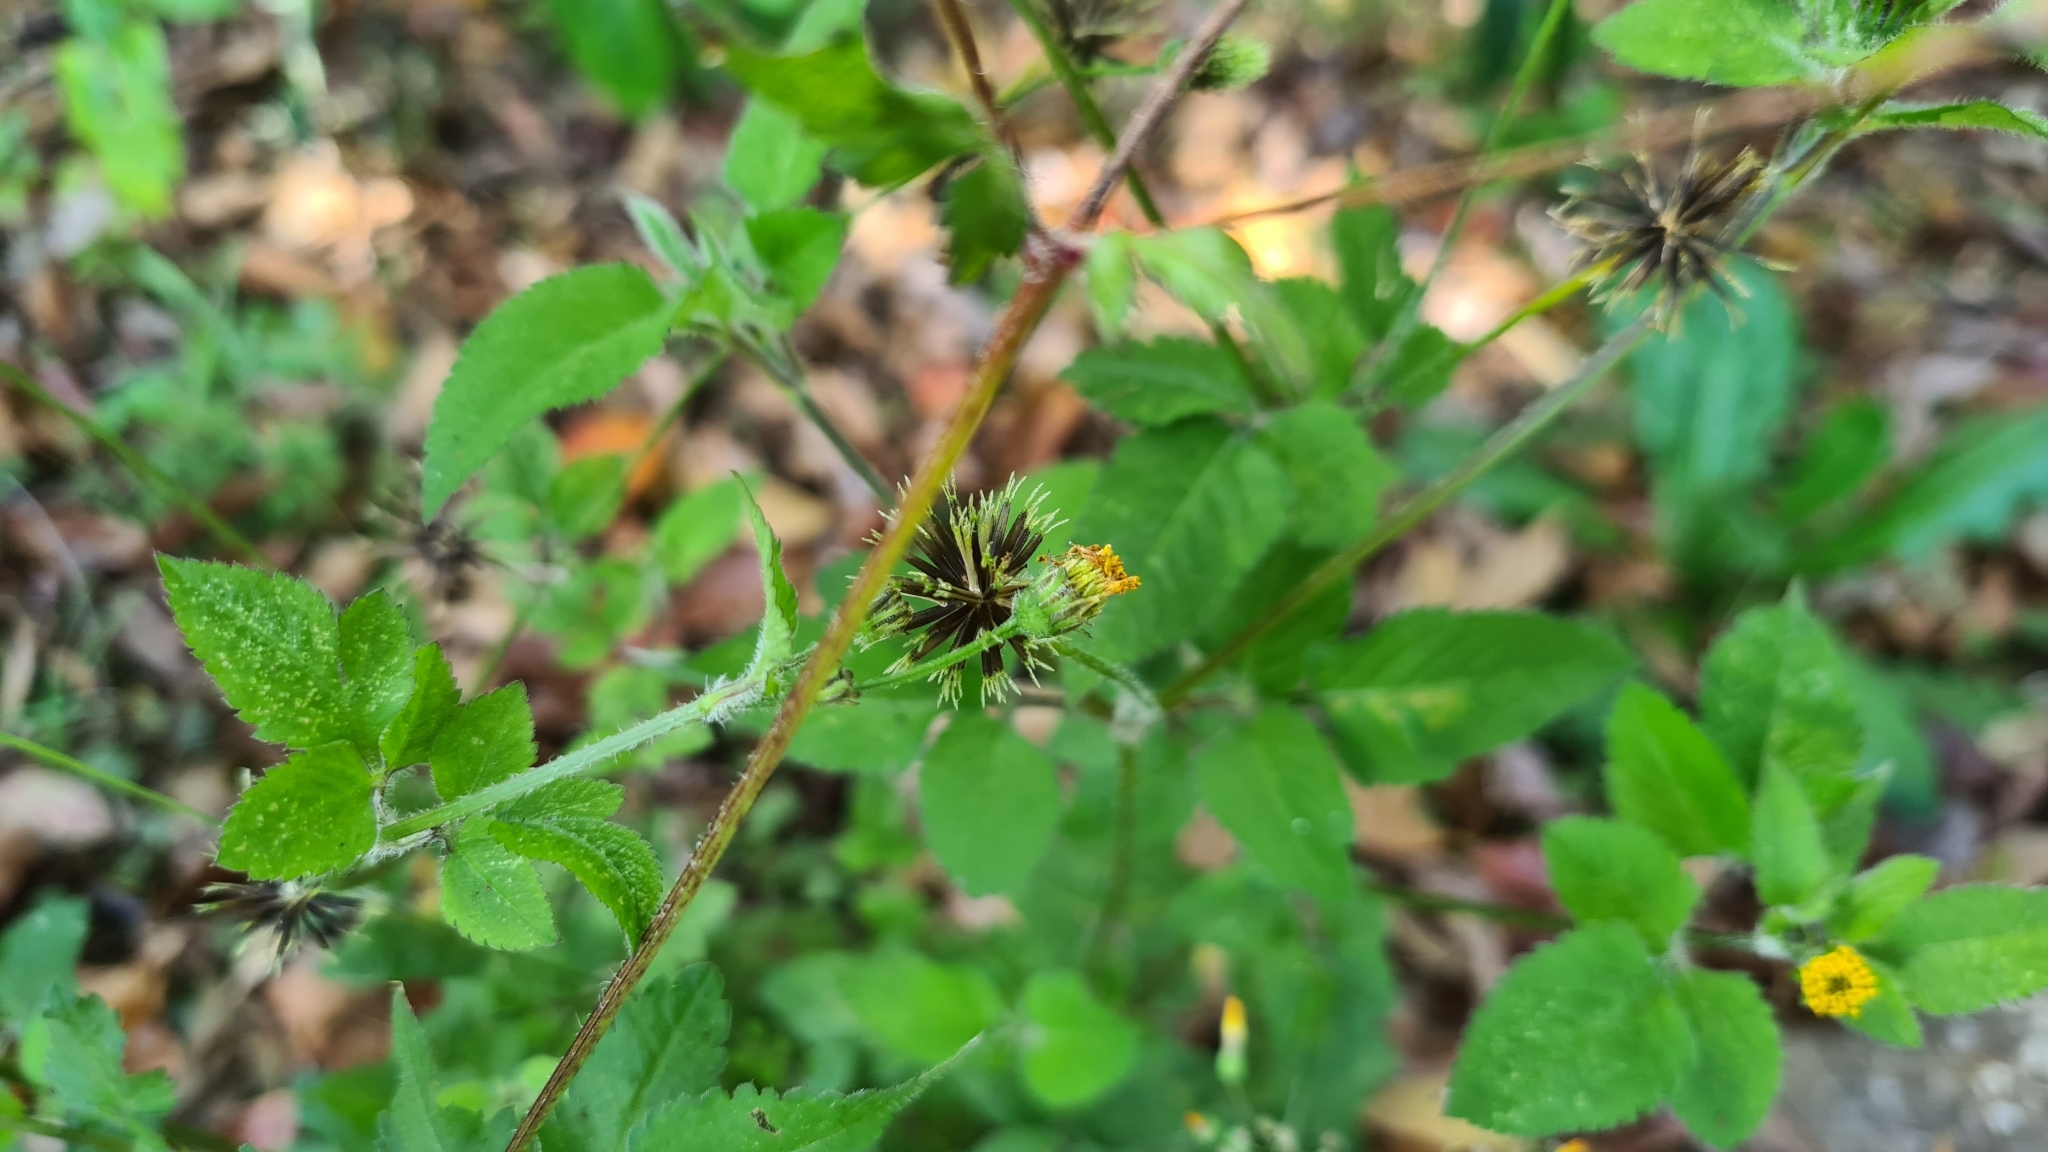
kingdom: Plantae
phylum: Tracheophyta
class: Magnoliopsida
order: Asterales
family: Asteraceae
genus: Bidens
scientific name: Bidens pilosa
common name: Black-jack
